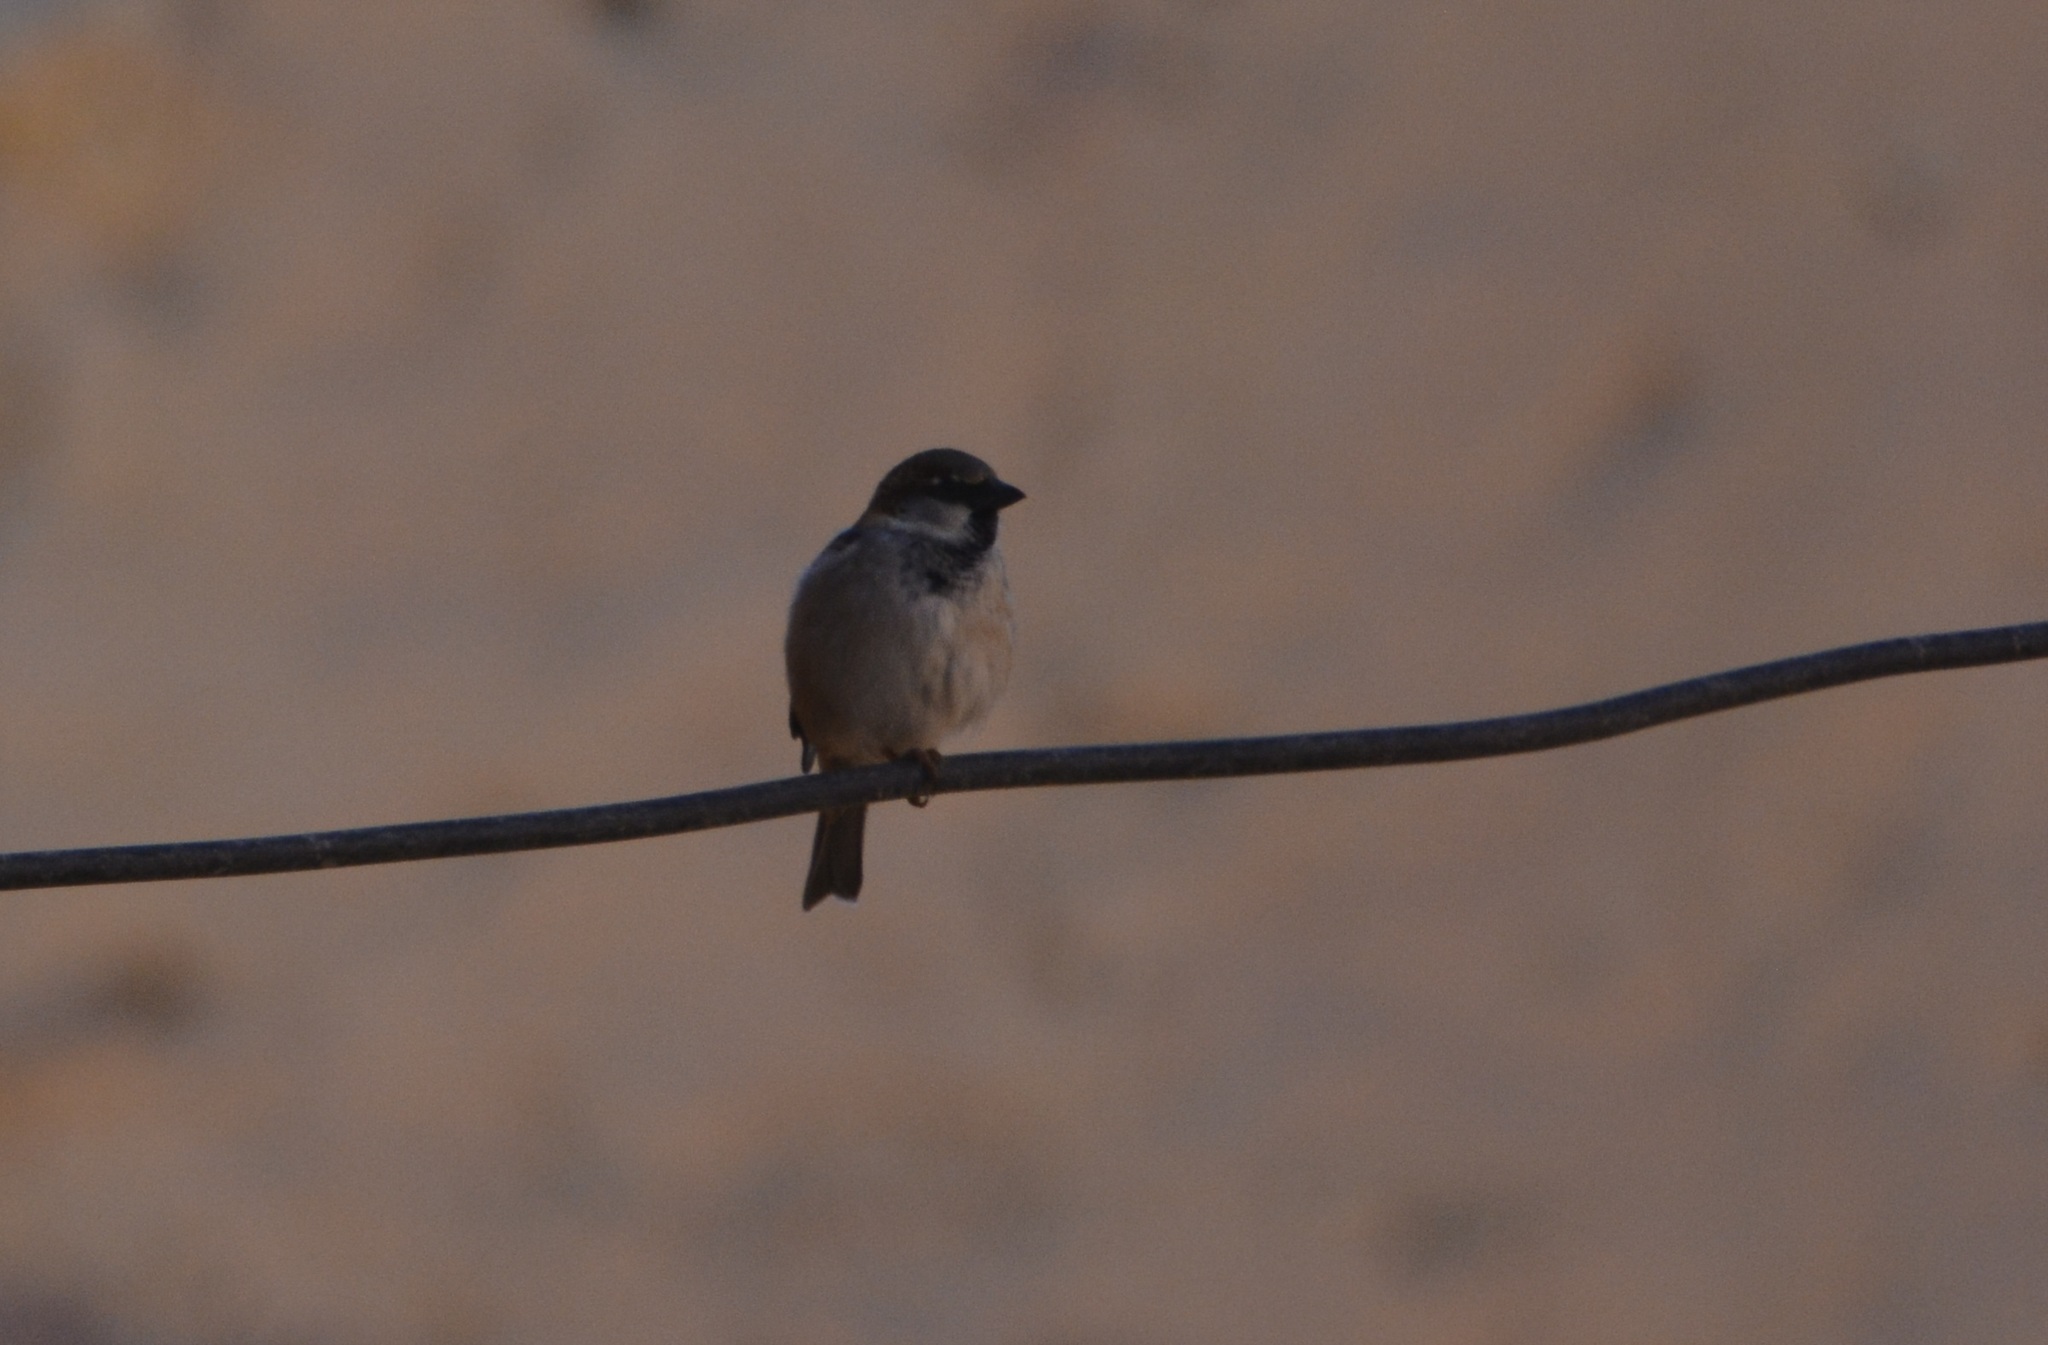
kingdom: Animalia
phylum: Chordata
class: Aves
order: Passeriformes
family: Passeridae
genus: Passer
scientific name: Passer domesticus
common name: House sparrow
